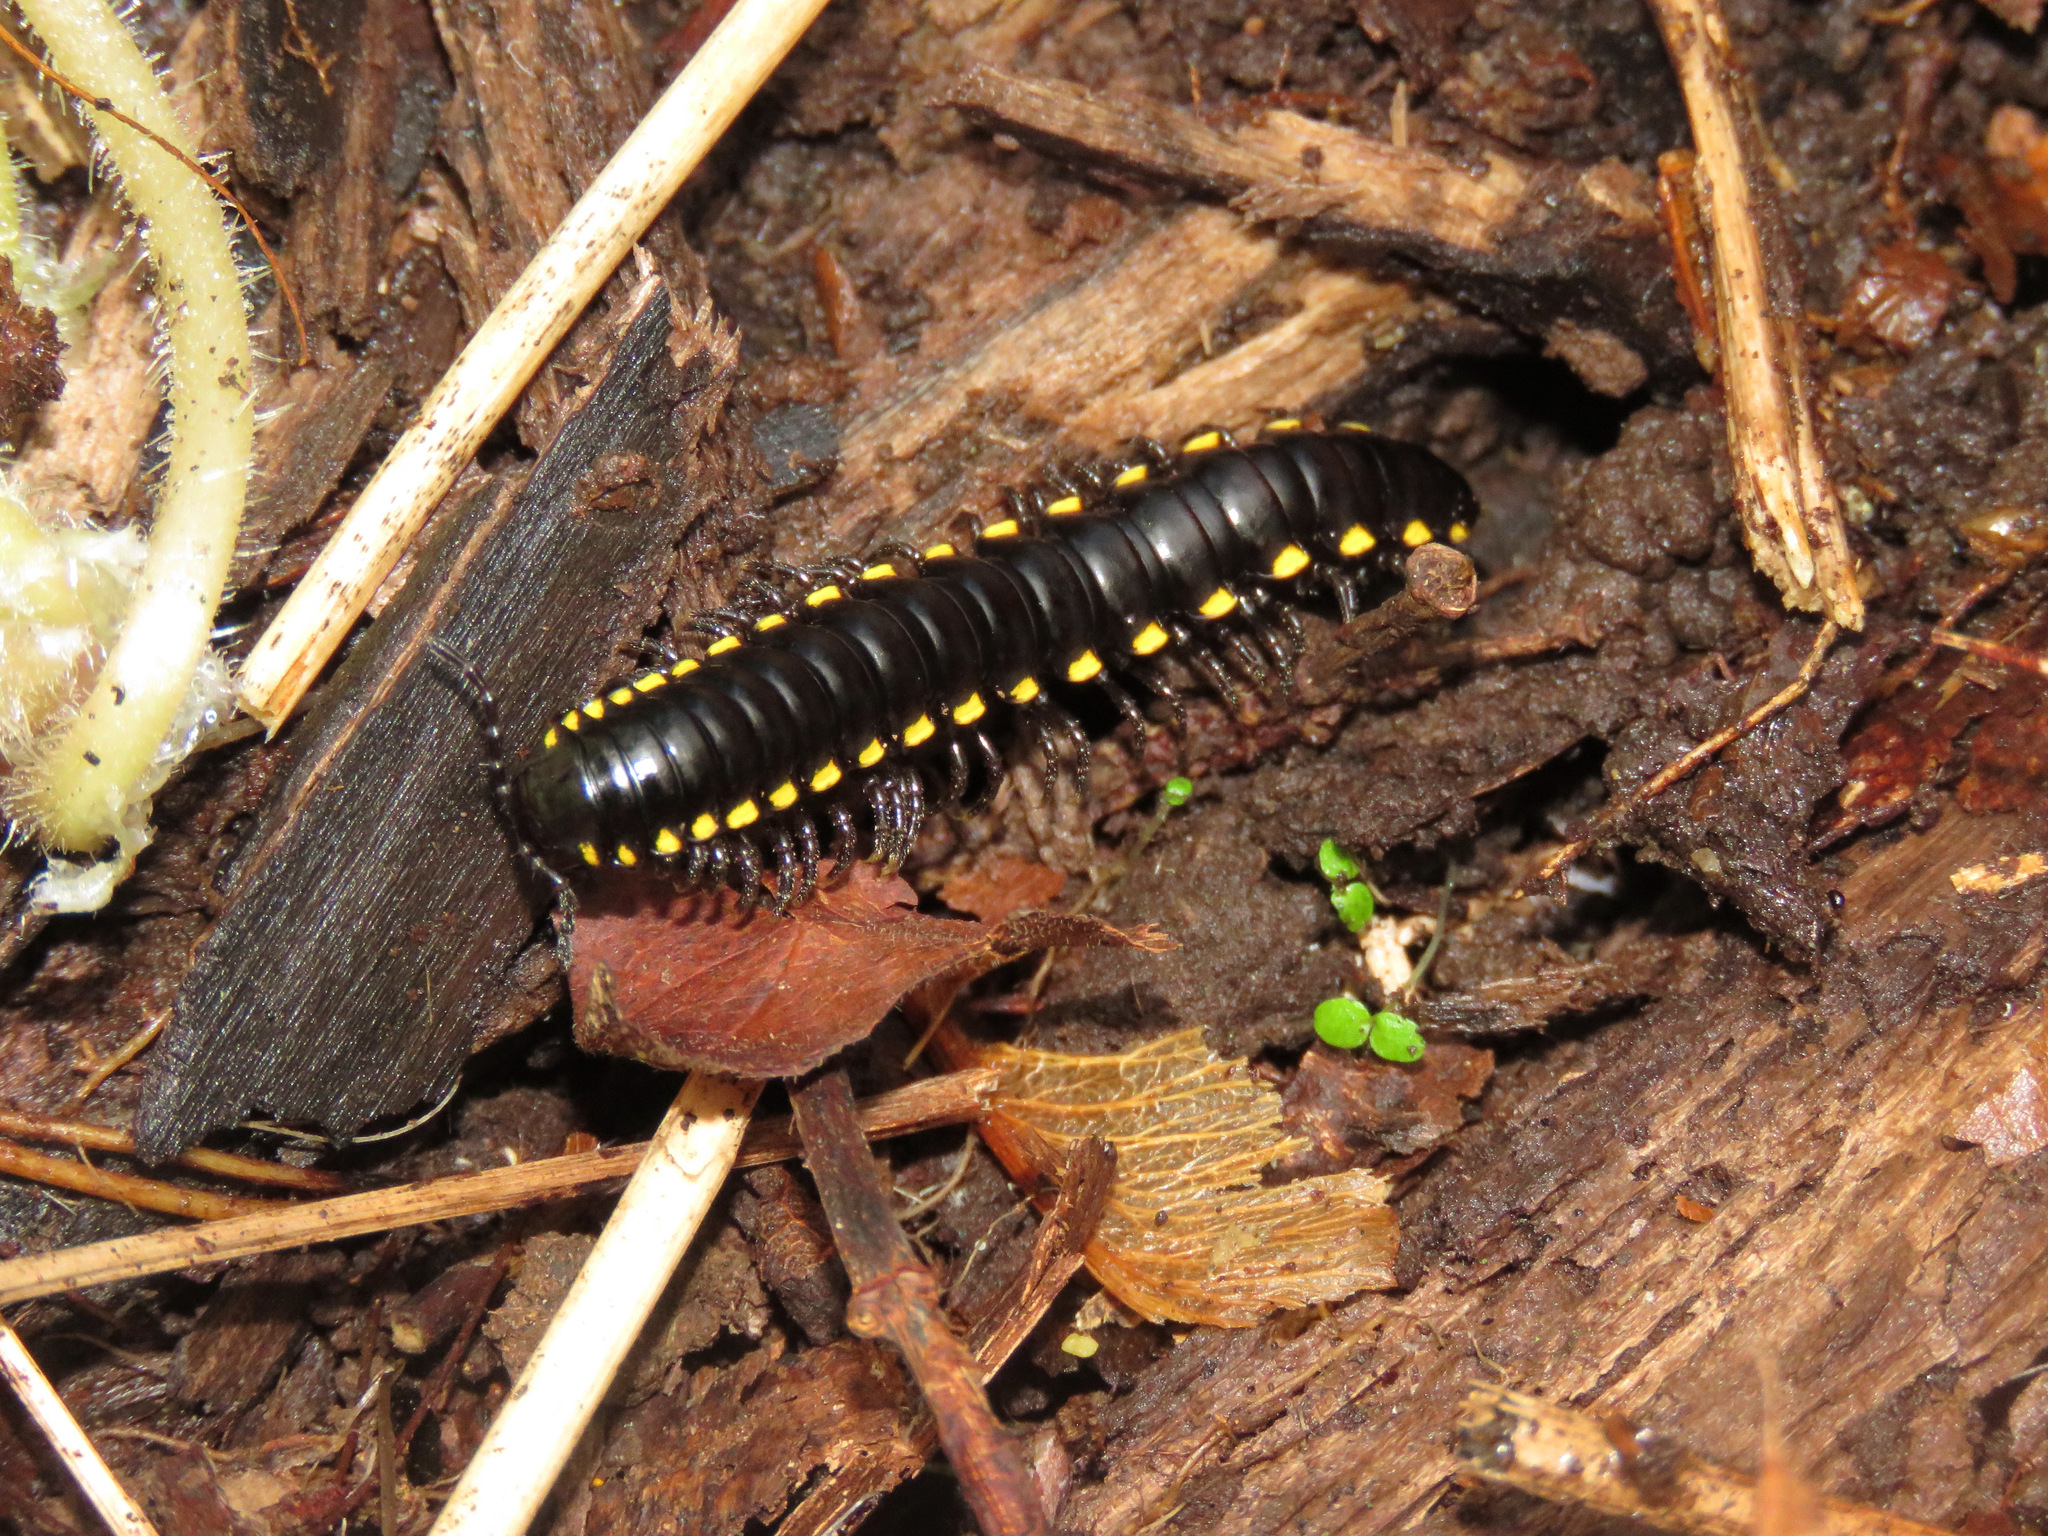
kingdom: Animalia
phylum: Arthropoda
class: Diplopoda
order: Polydesmida
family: Xystodesmidae
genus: Harpaphe
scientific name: Harpaphe haydeniana
